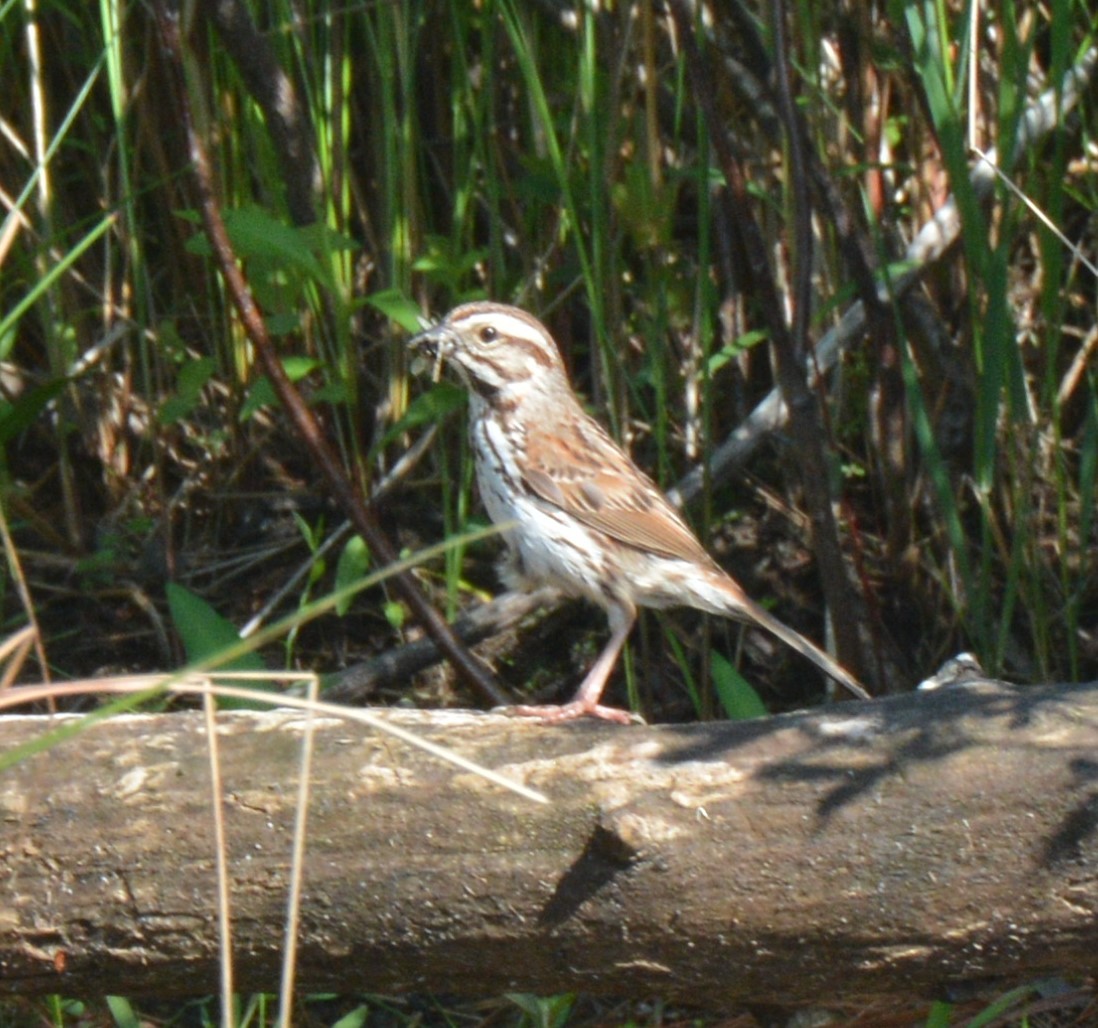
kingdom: Animalia
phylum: Chordata
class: Aves
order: Passeriformes
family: Passerellidae
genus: Melospiza
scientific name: Melospiza melodia
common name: Song sparrow
